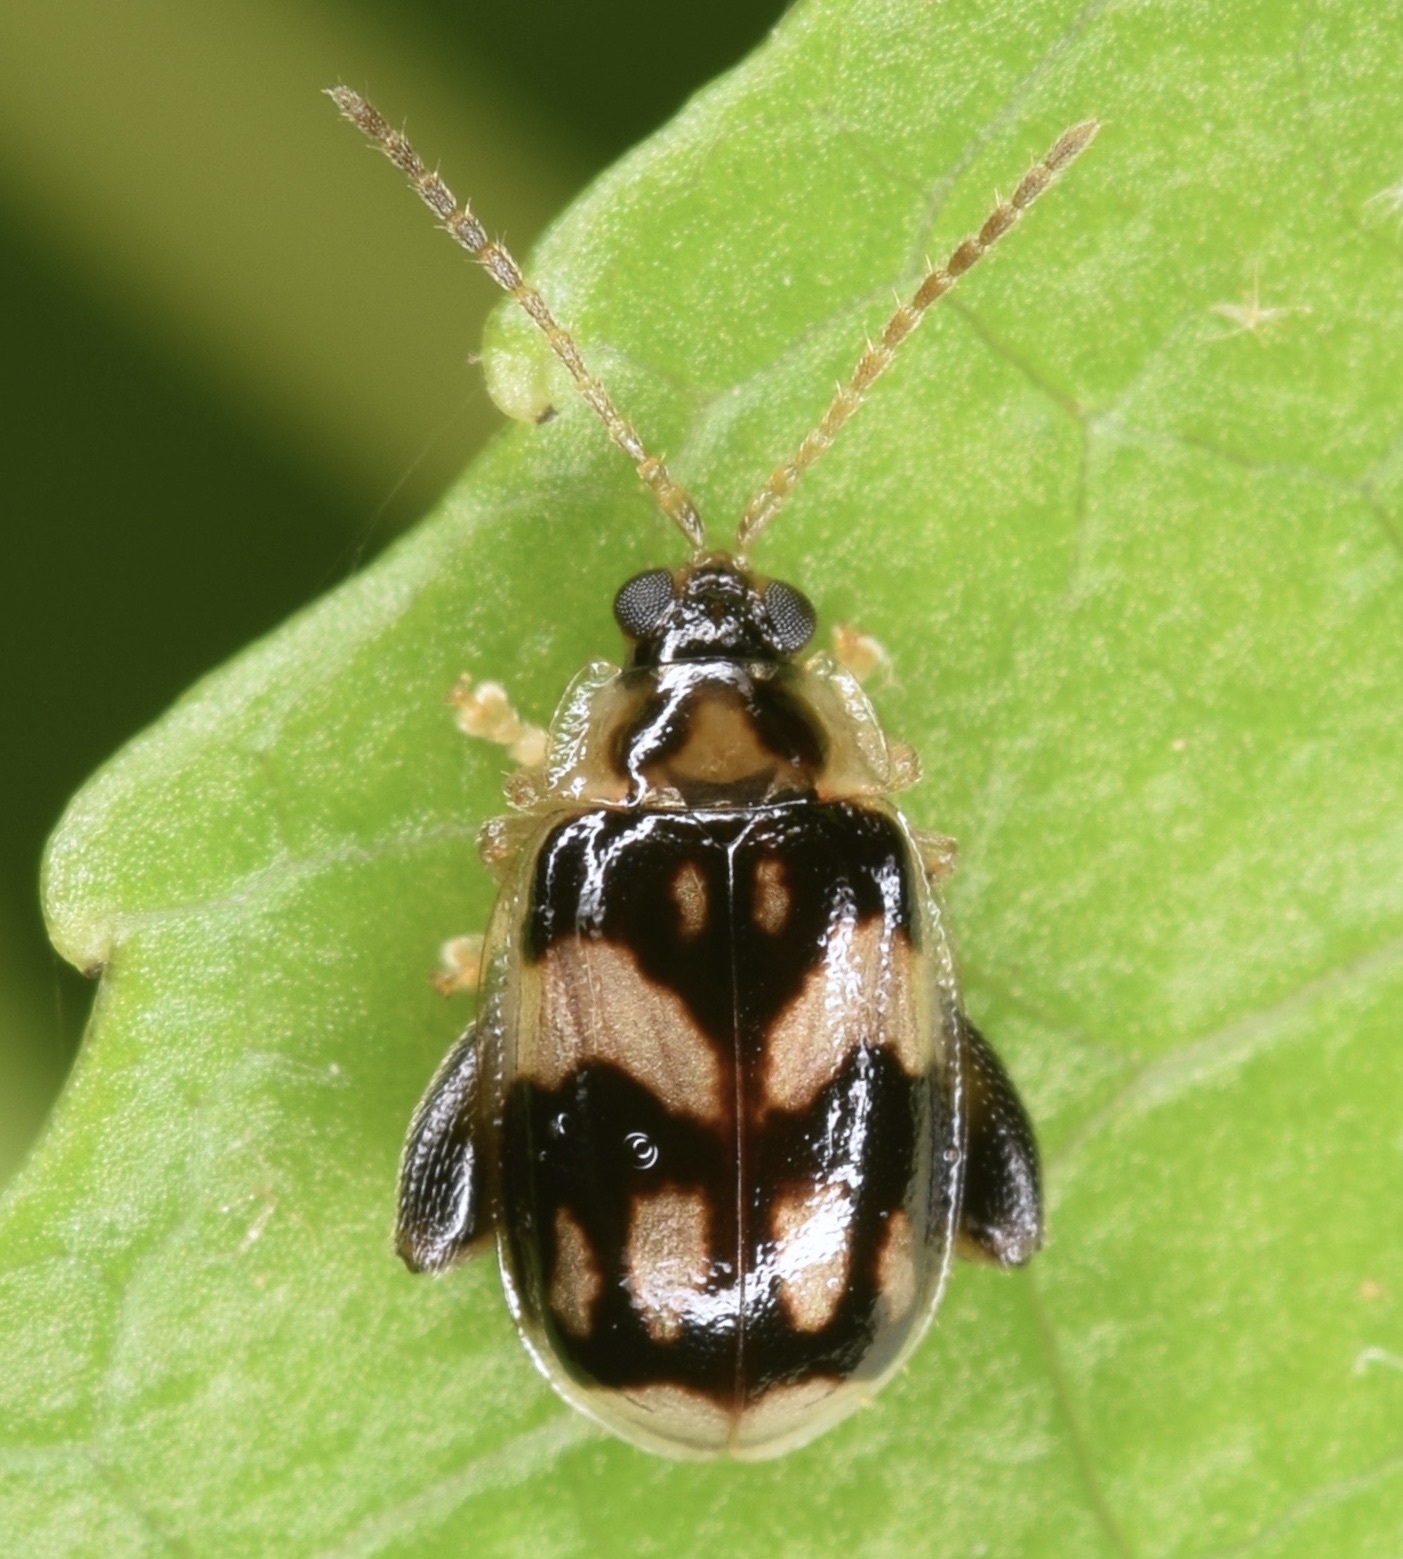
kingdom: Animalia
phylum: Arthropoda
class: Insecta
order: Coleoptera
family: Chrysomelidae
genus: Capraita
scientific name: Capraita obsidiana
